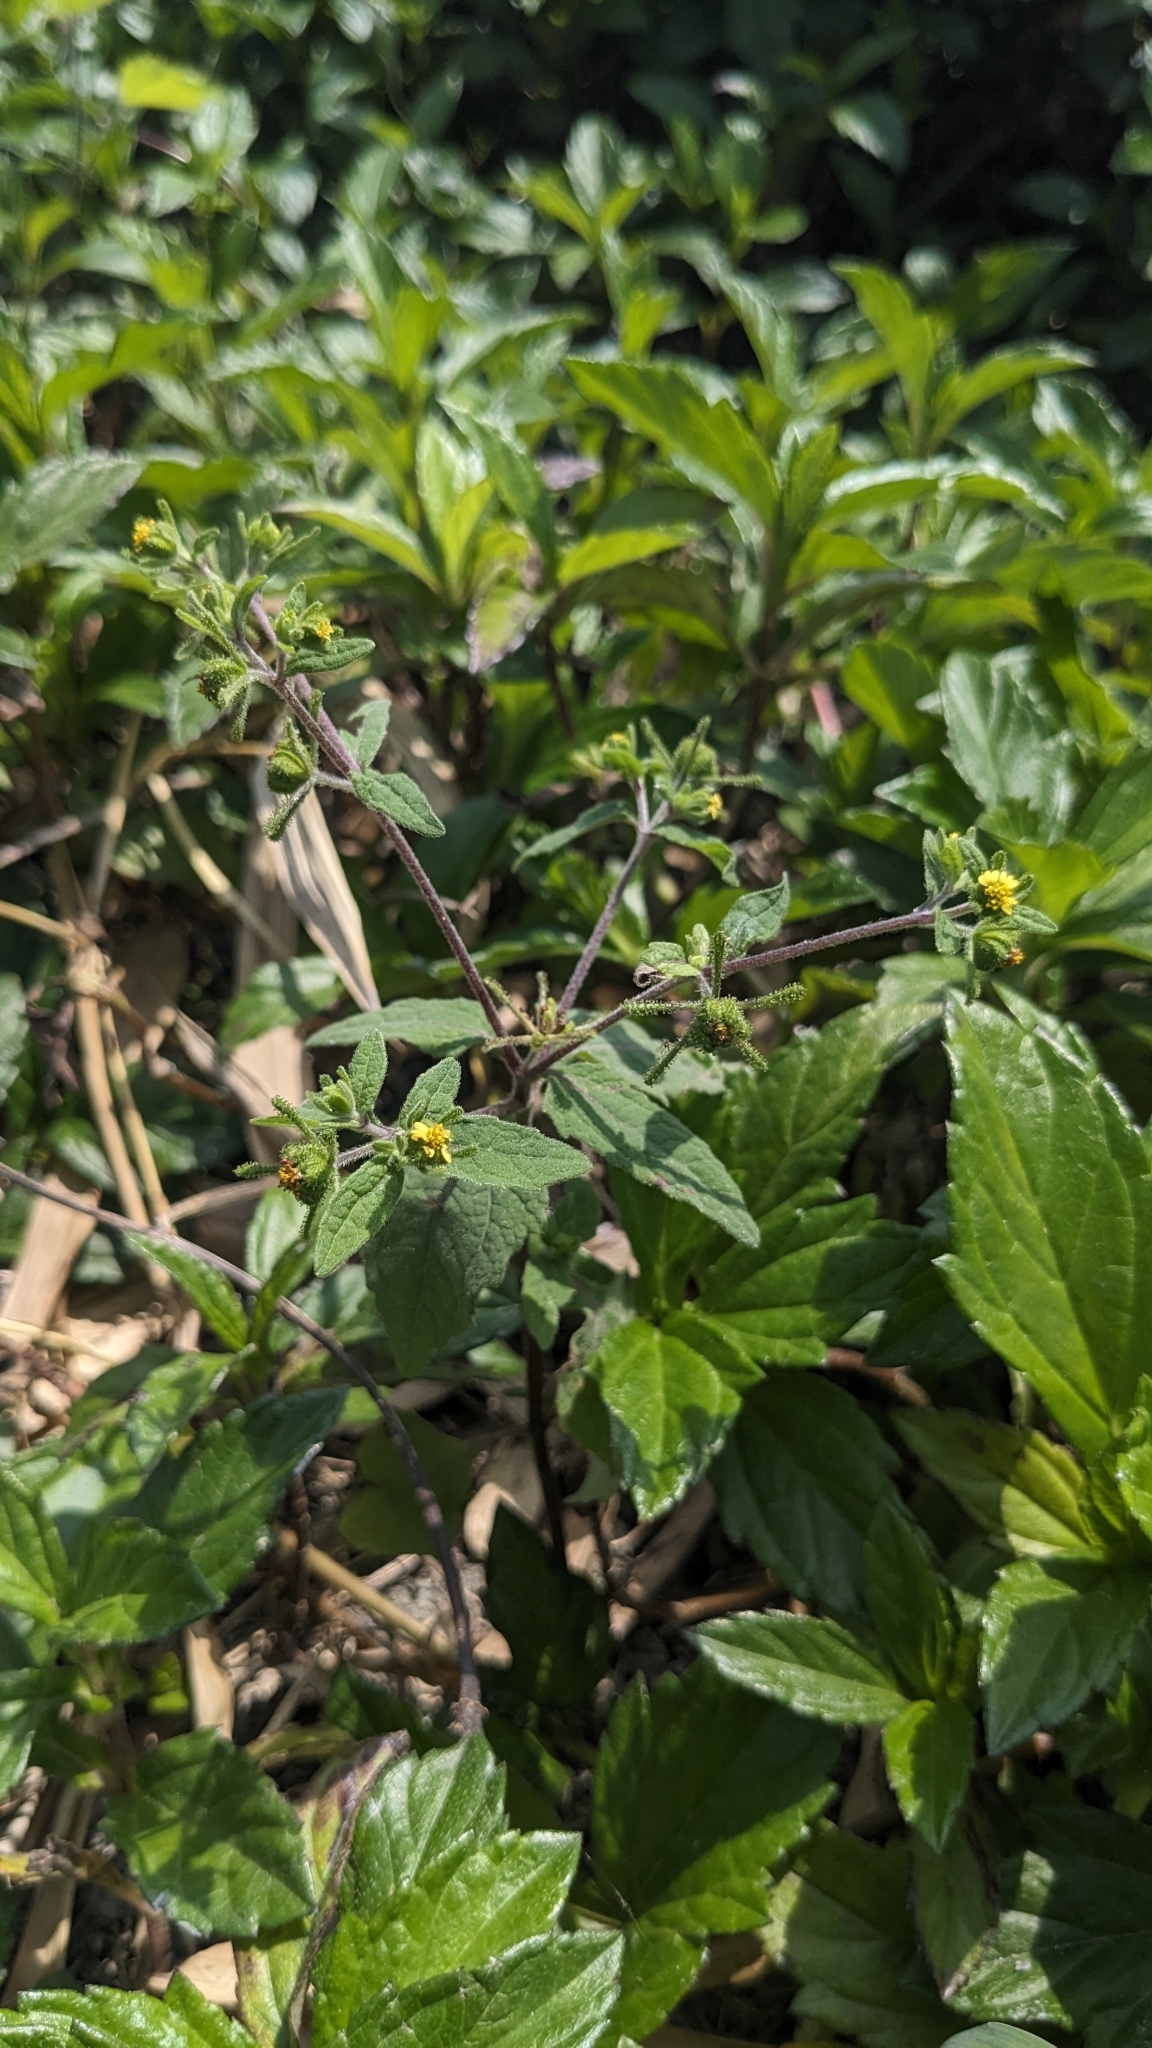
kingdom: Plantae
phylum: Tracheophyta
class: Magnoliopsida
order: Asterales
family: Asteraceae
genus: Sigesbeckia
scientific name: Sigesbeckia orientalis
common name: Eastern st paul's-wort
